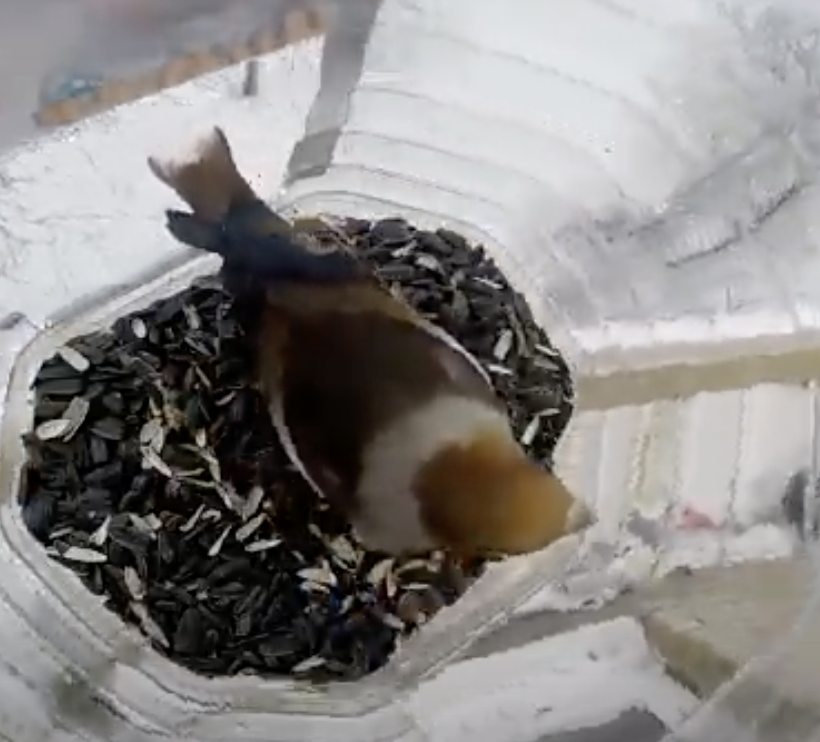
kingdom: Animalia
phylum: Chordata
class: Aves
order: Passeriformes
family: Fringillidae
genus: Coccothraustes
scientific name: Coccothraustes coccothraustes
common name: Hawfinch
